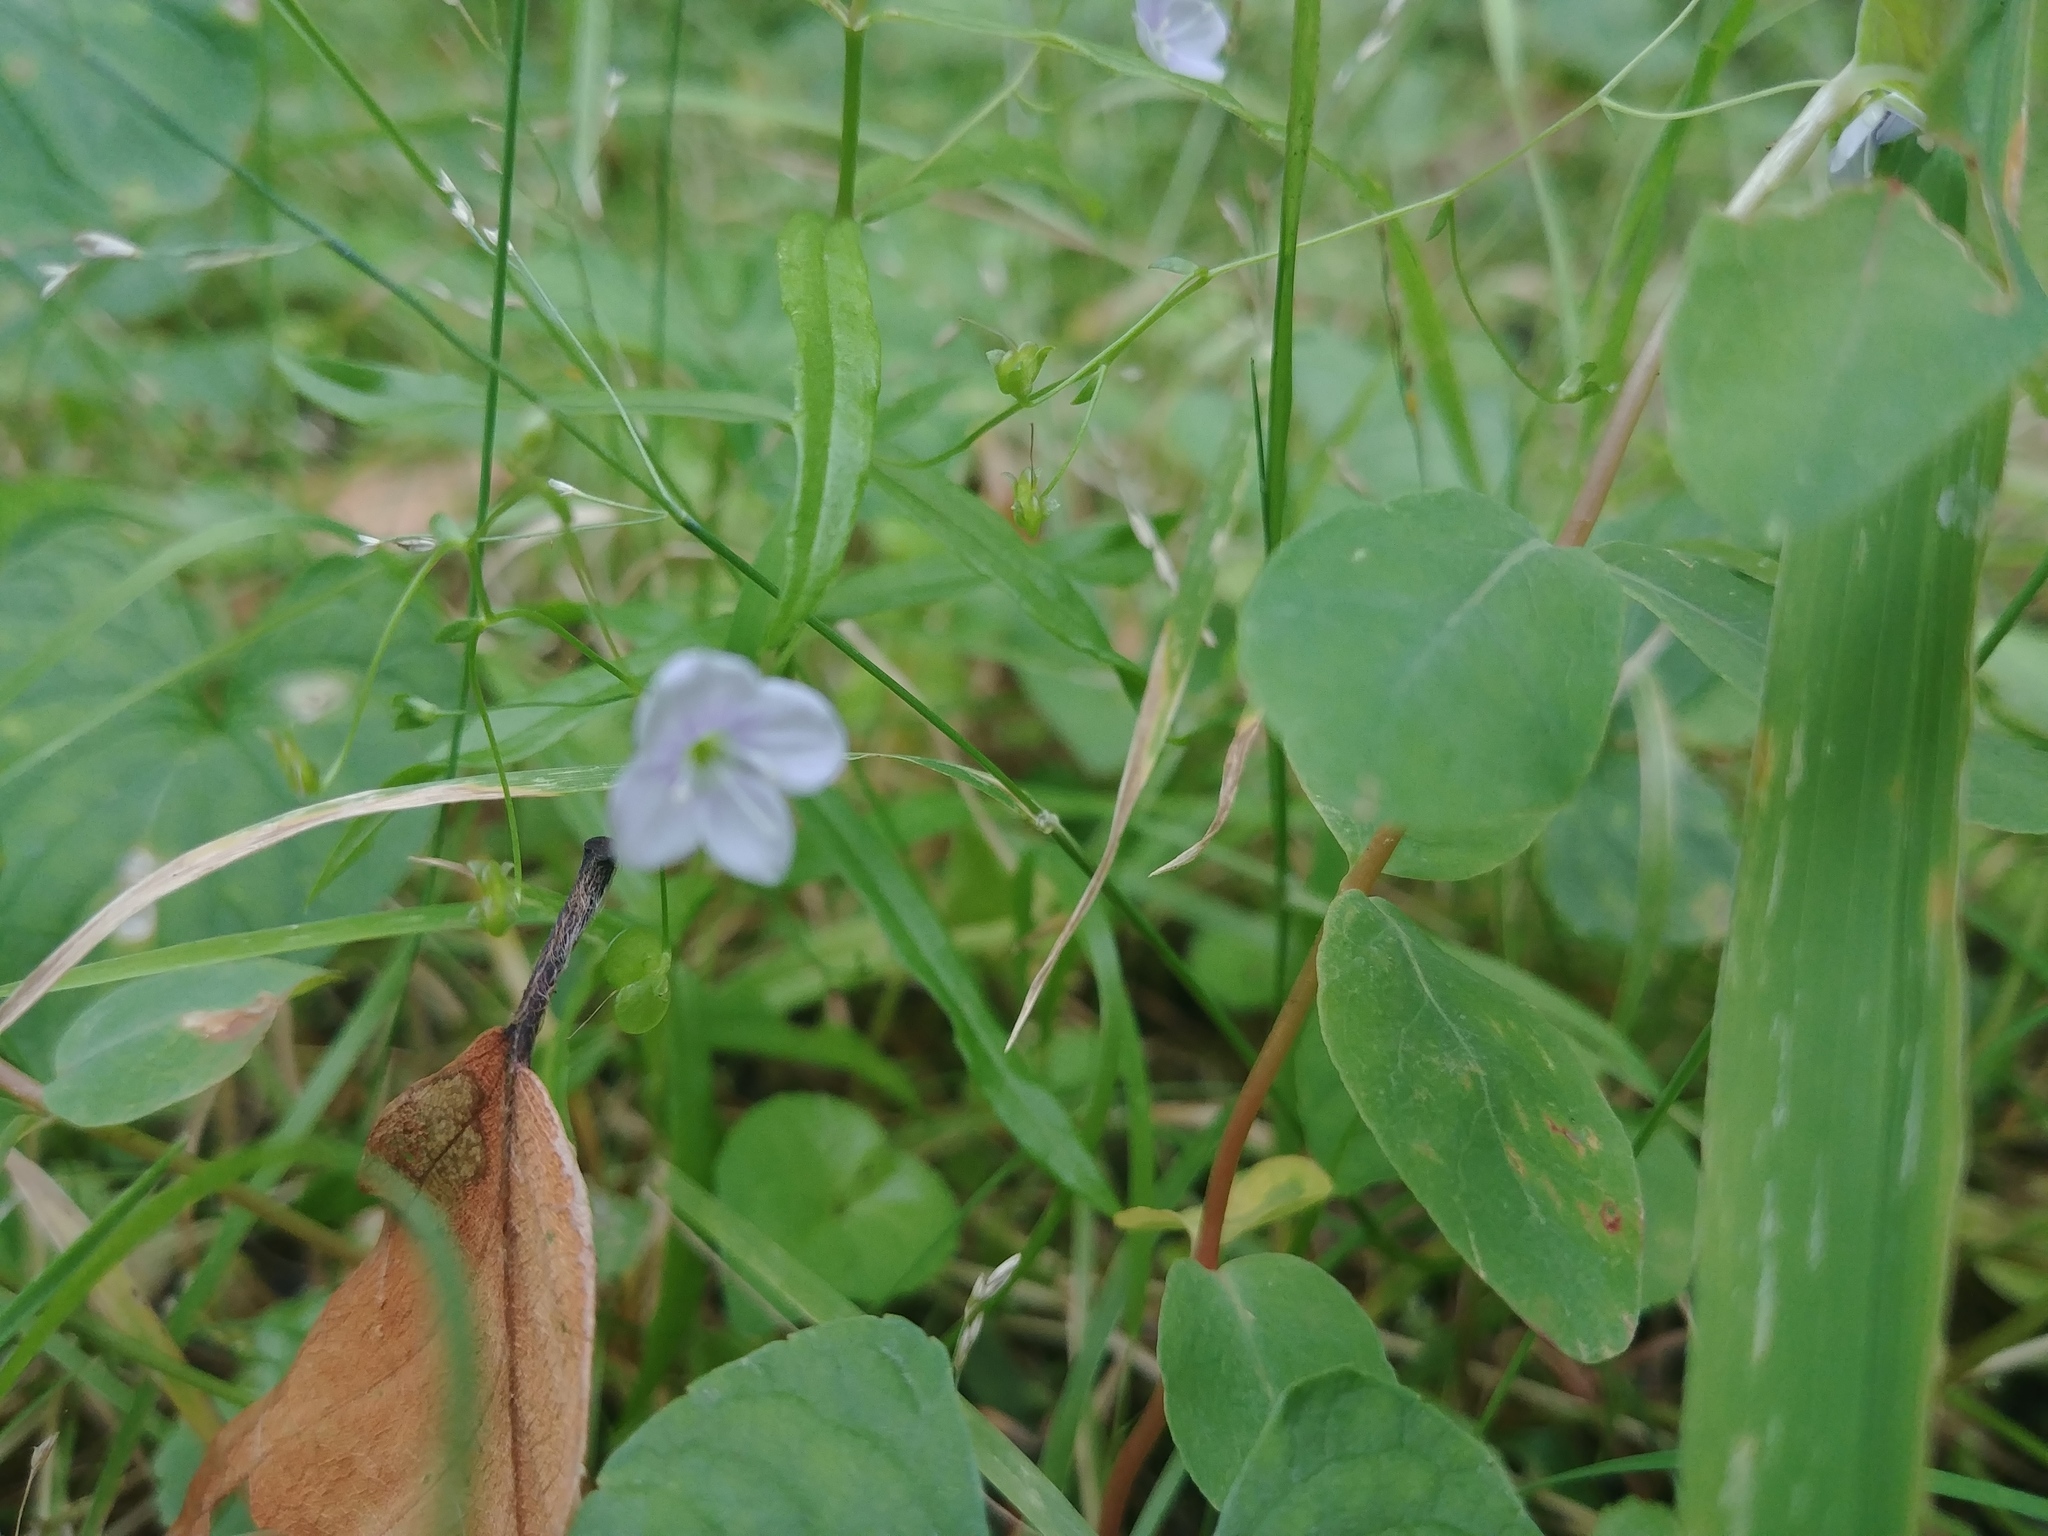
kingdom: Plantae
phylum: Tracheophyta
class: Magnoliopsida
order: Lamiales
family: Plantaginaceae
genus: Veronica
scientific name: Veronica scutellata
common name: Marsh speedwell
